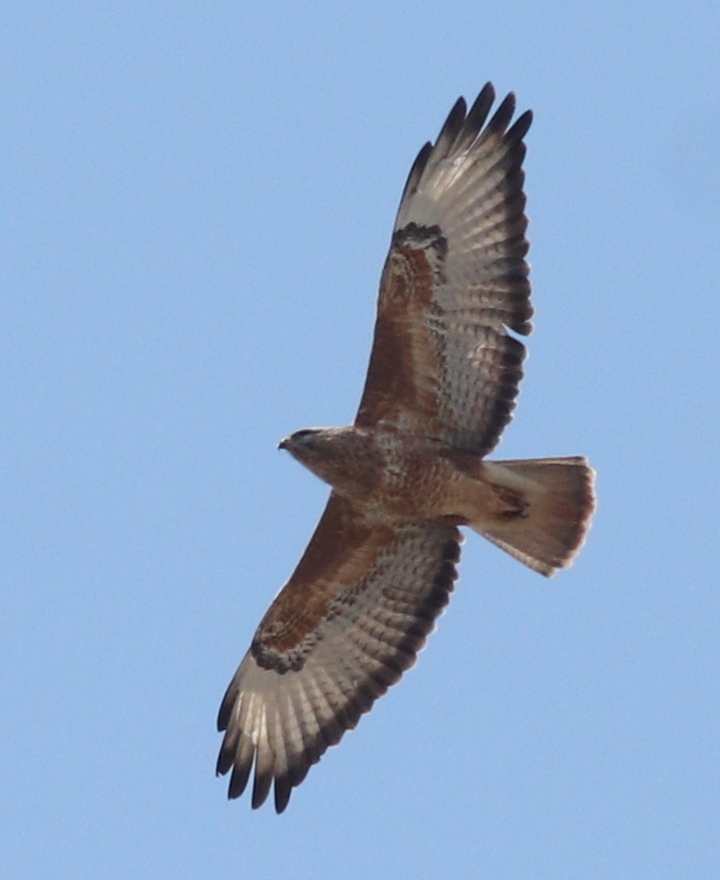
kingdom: Animalia
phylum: Chordata
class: Aves
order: Accipitriformes
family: Accipitridae
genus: Buteo
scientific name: Buteo buteo
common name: Common buzzard
